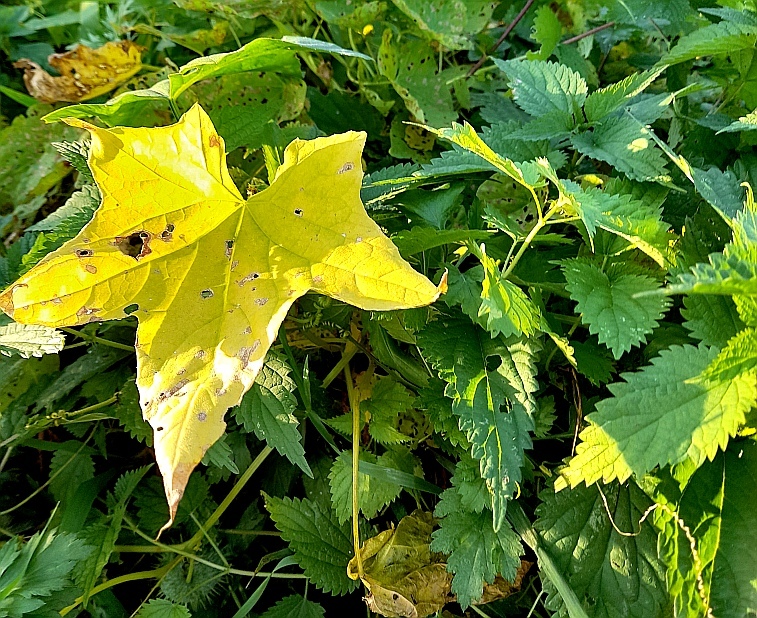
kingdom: Plantae
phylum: Tracheophyta
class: Magnoliopsida
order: Cucurbitales
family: Cucurbitaceae
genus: Echinocystis
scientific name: Echinocystis lobata
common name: Wild cucumber
